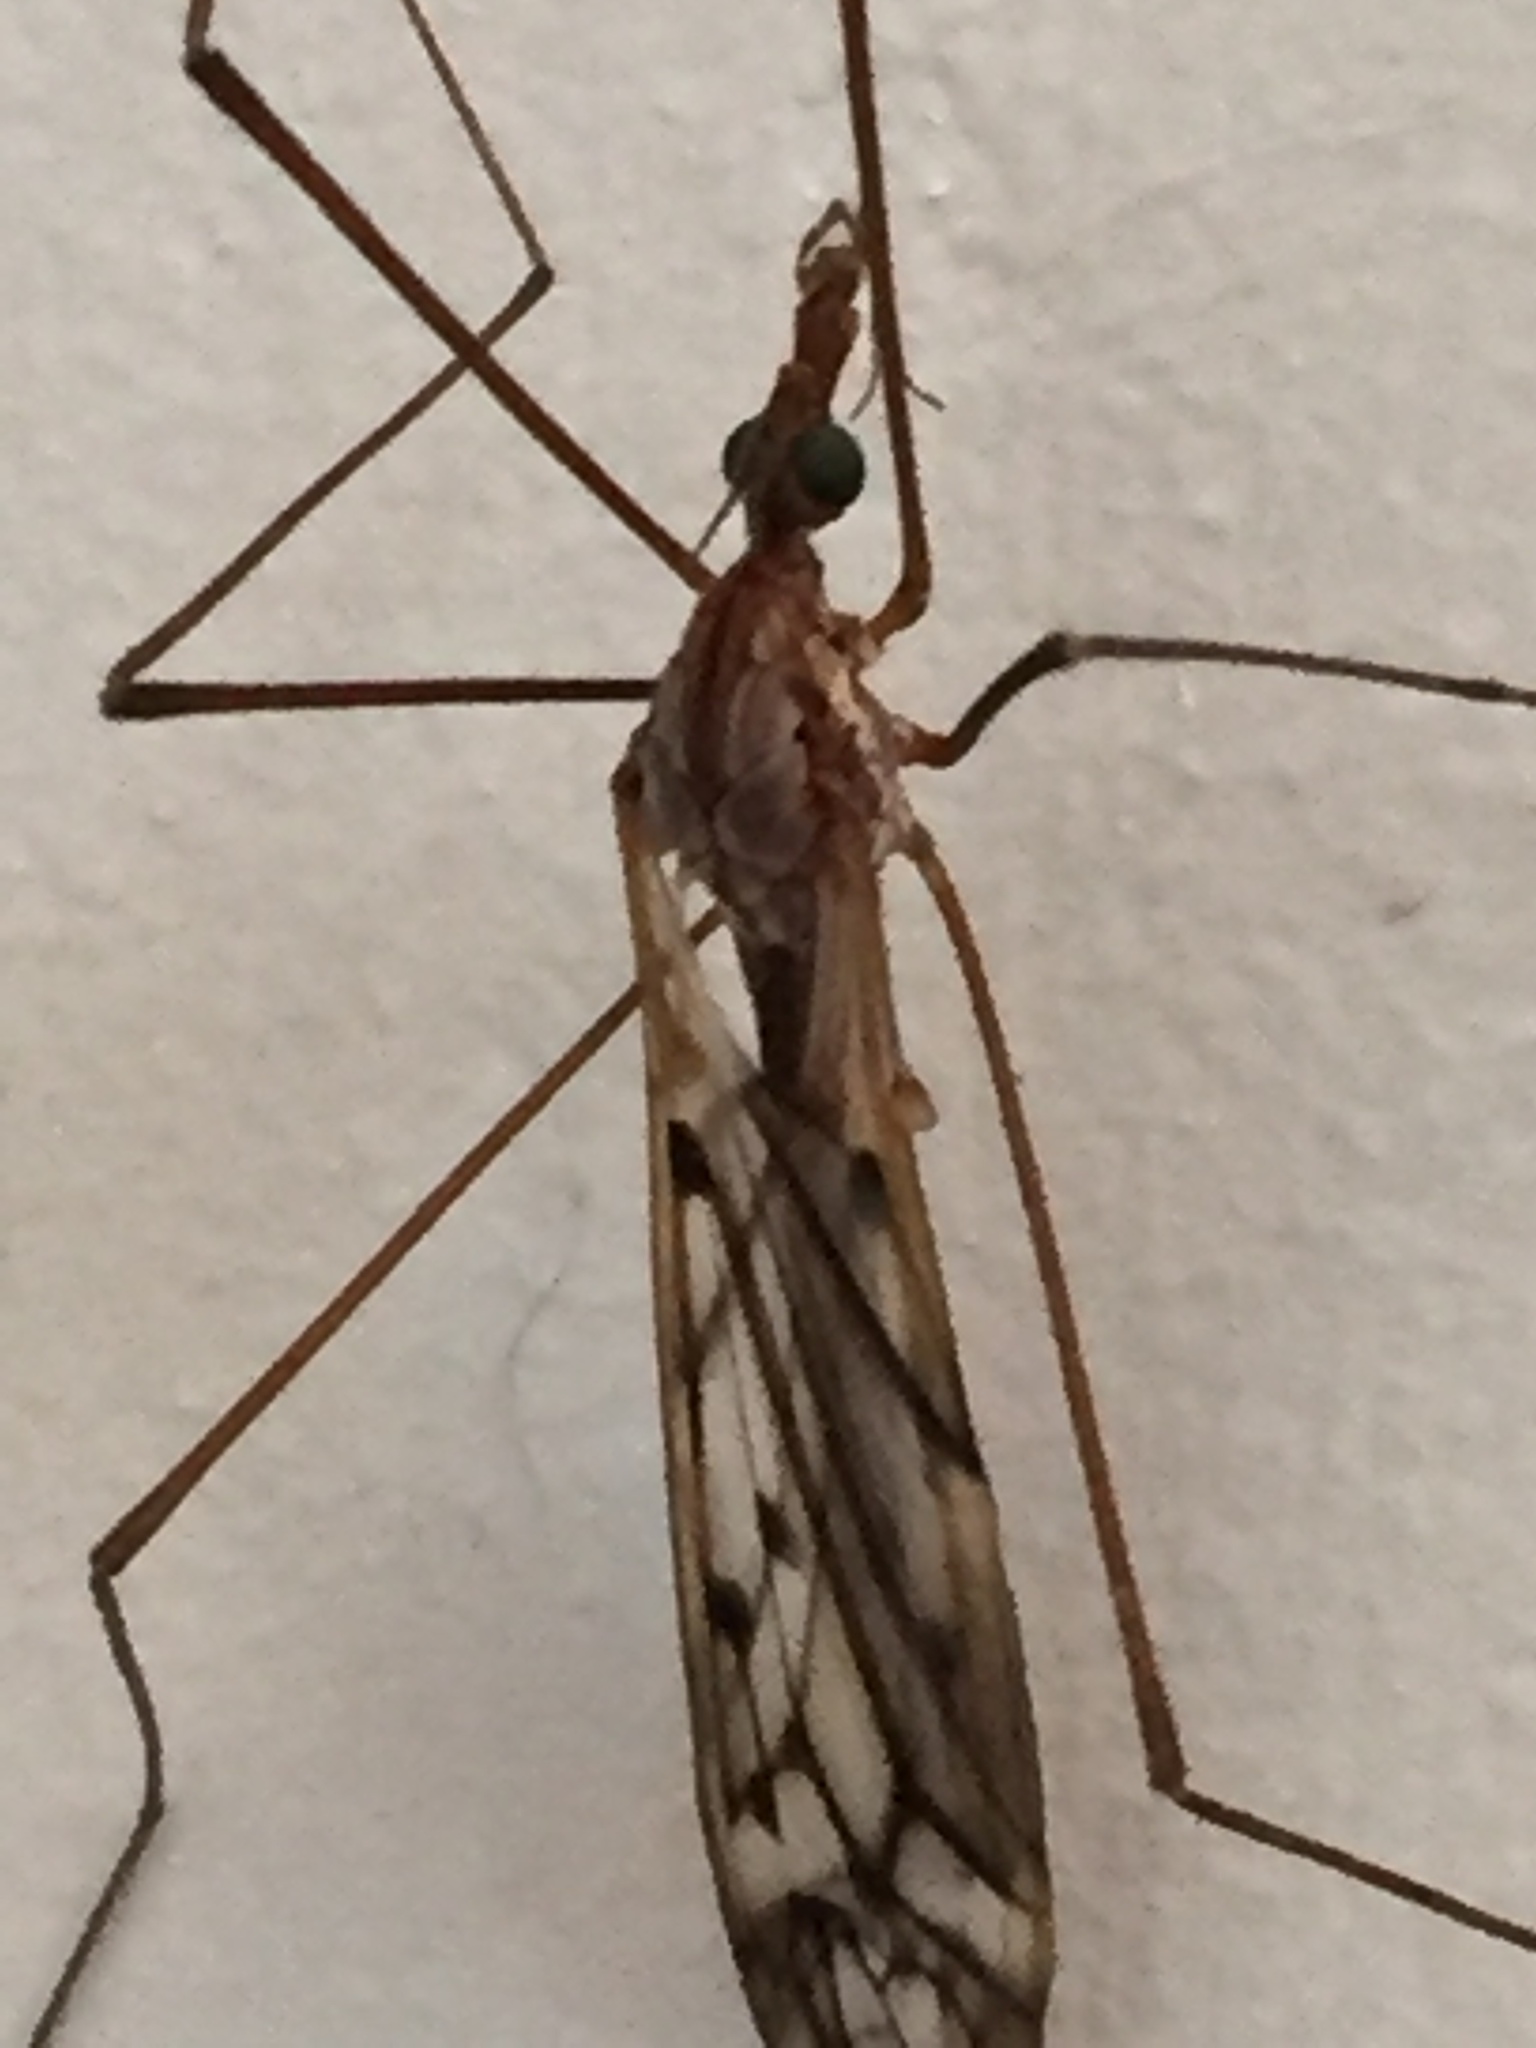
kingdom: Animalia
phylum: Arthropoda
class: Insecta
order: Diptera
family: Tipulidae
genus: Zelandotipula
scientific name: Zelandotipula novarae
